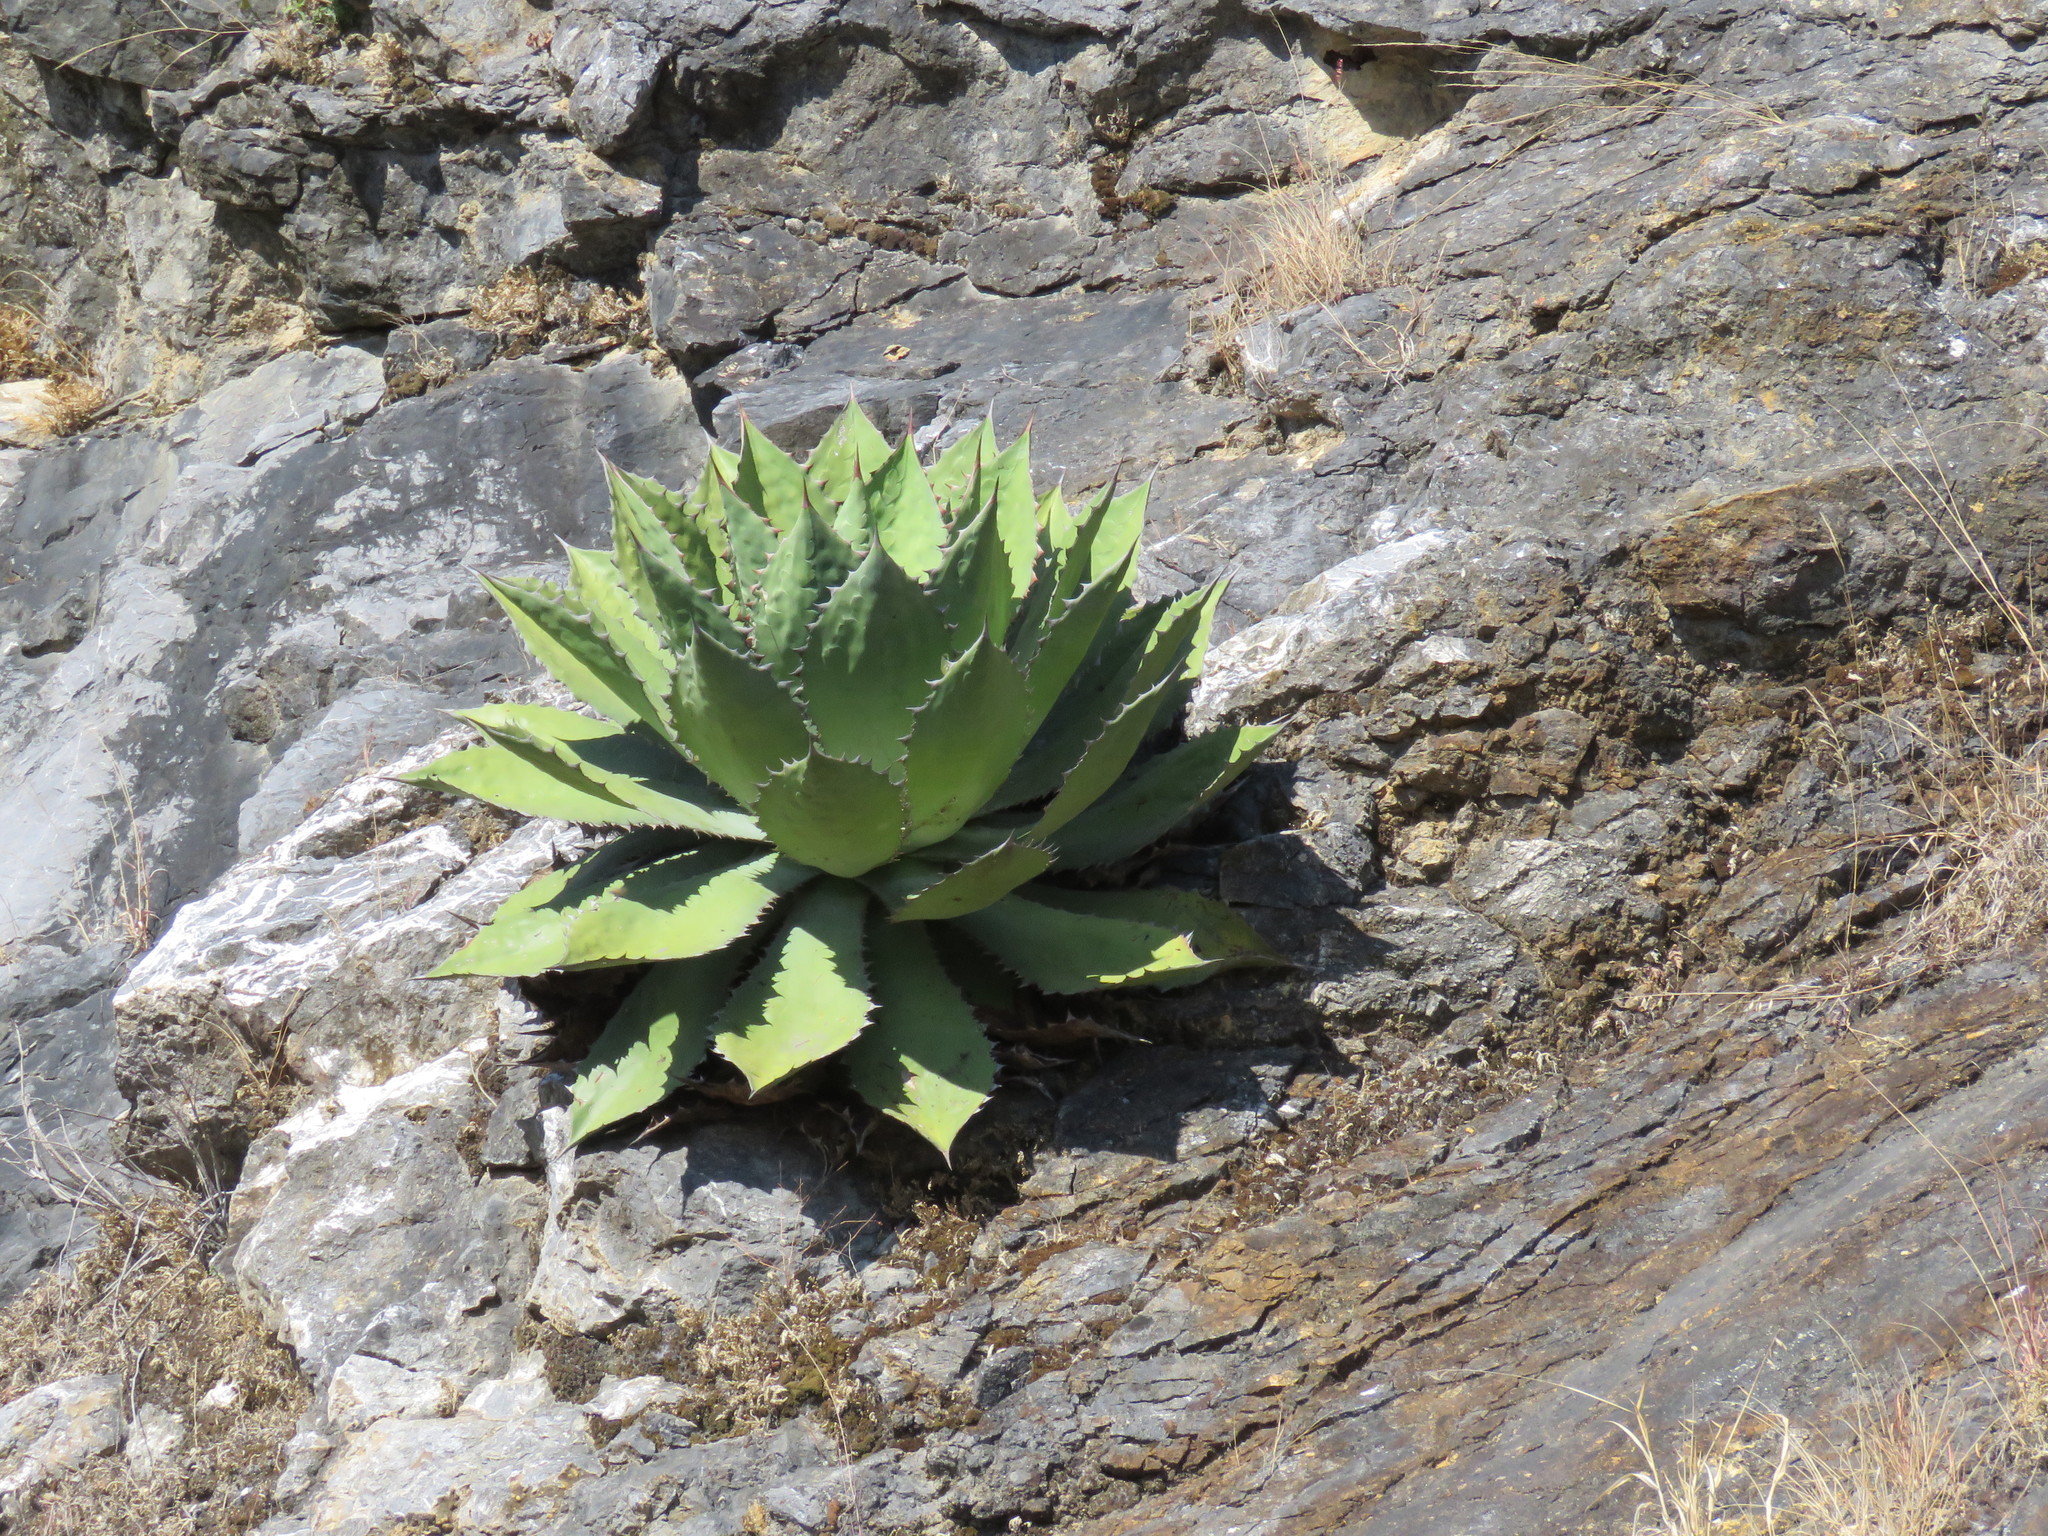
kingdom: Plantae
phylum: Tracheophyta
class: Liliopsida
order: Asparagales
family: Asparagaceae
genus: Agave
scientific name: Agave cupreata
